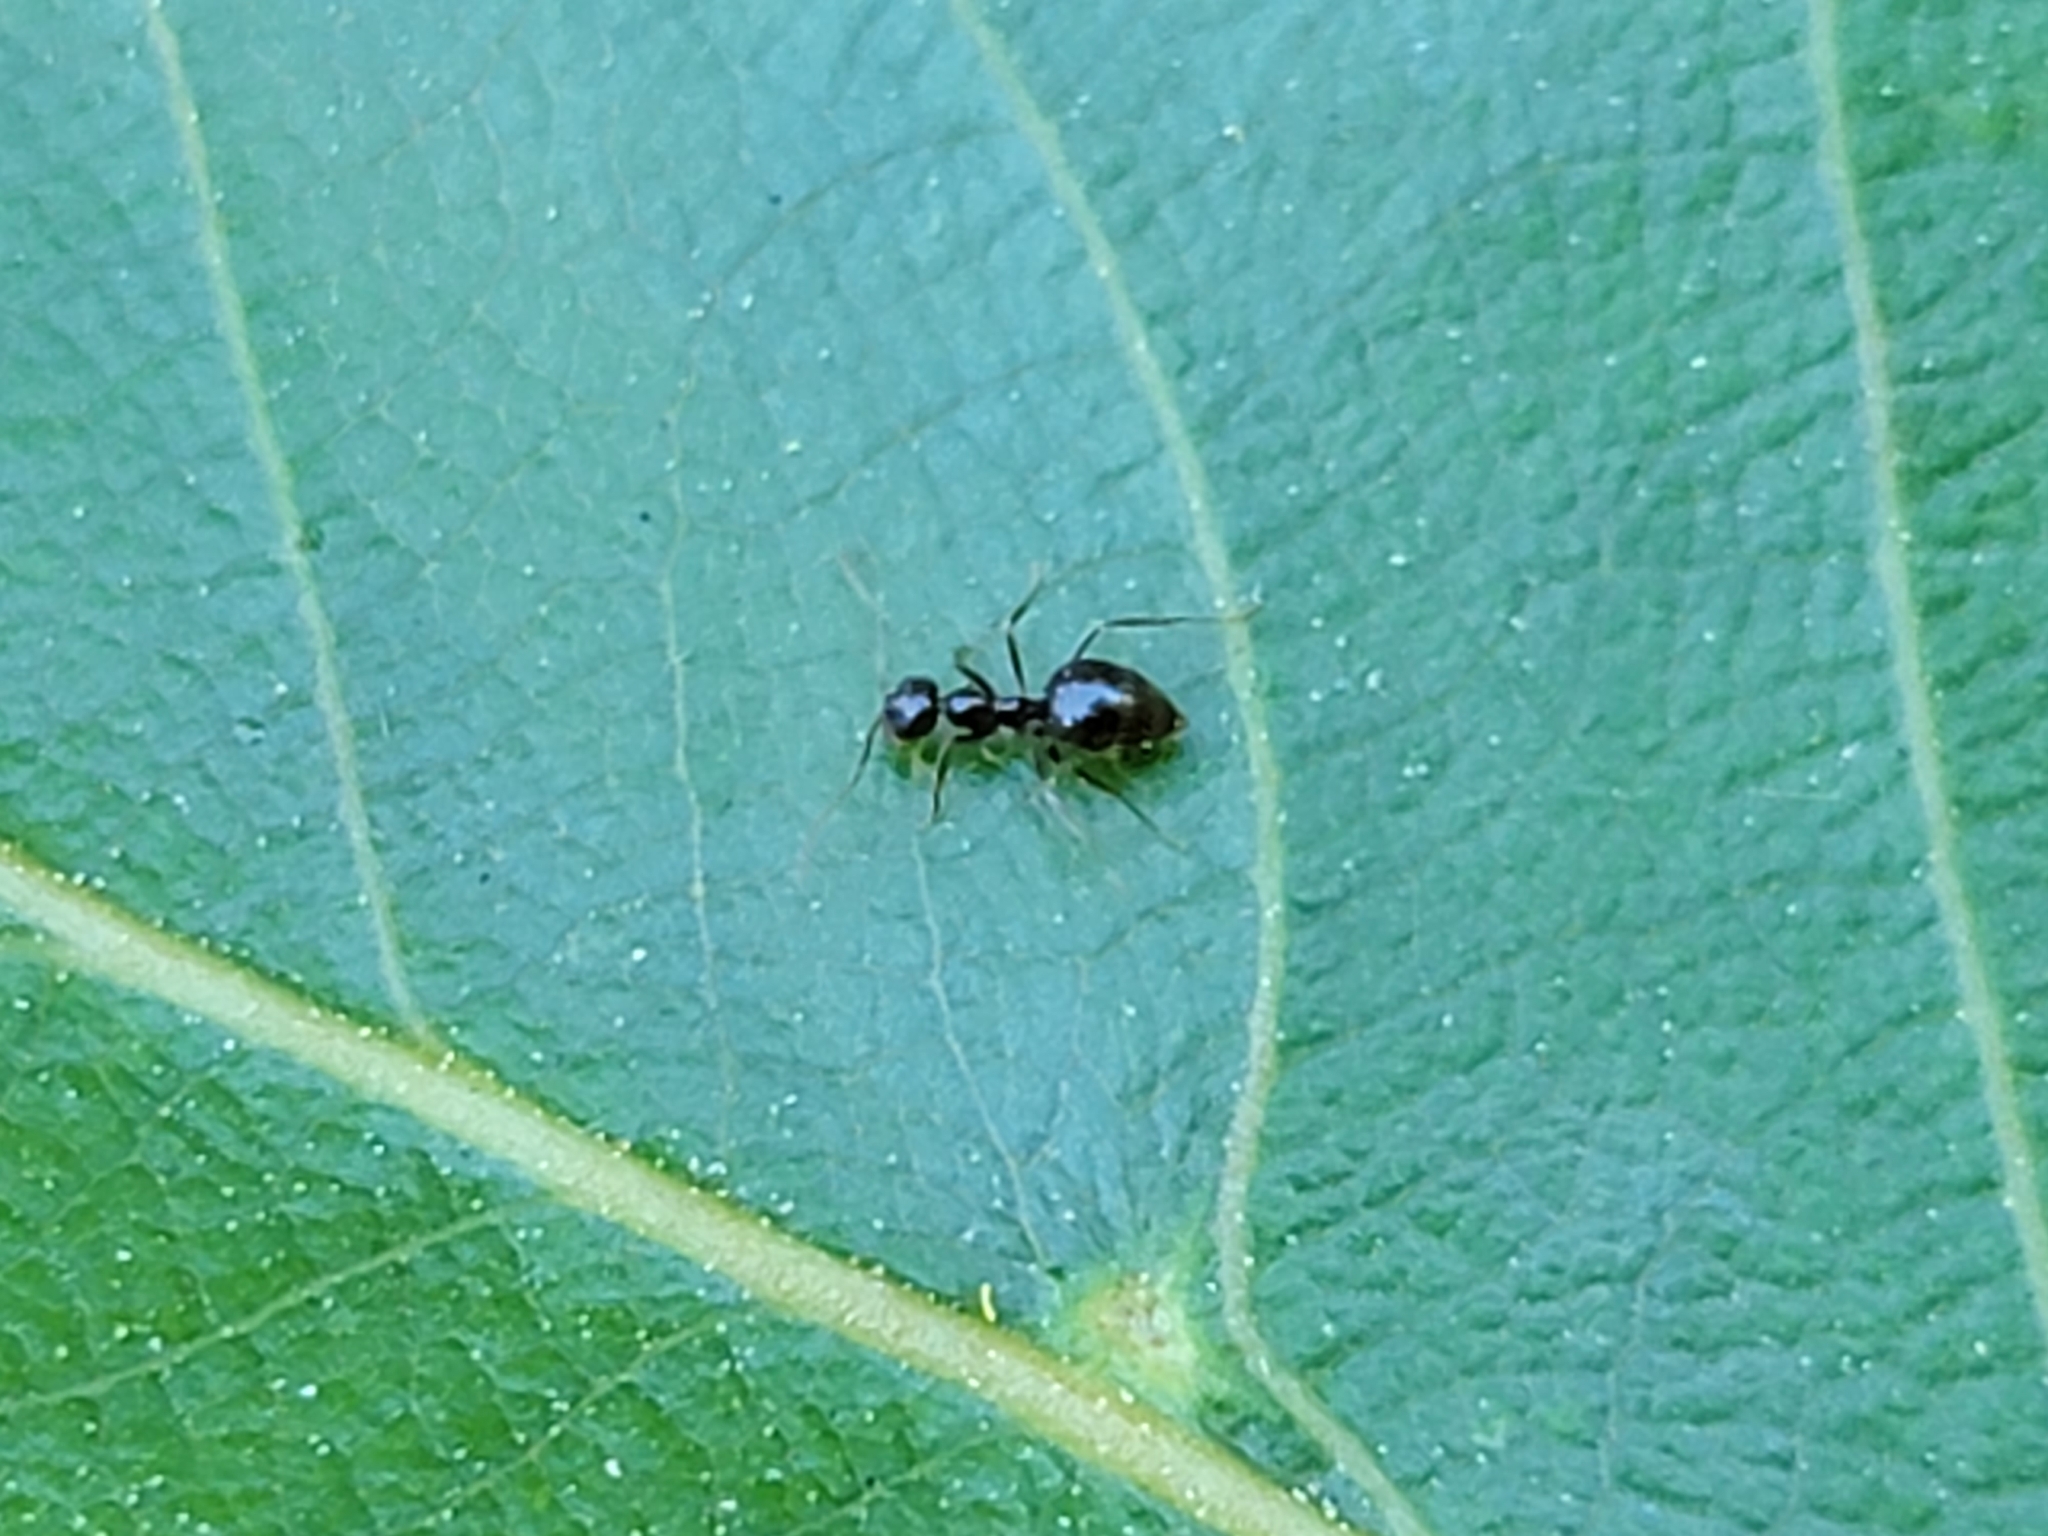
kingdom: Animalia
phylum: Arthropoda
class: Insecta
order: Hymenoptera
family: Formicidae
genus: Prenolepis
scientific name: Prenolepis imparis
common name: Small honey ant
